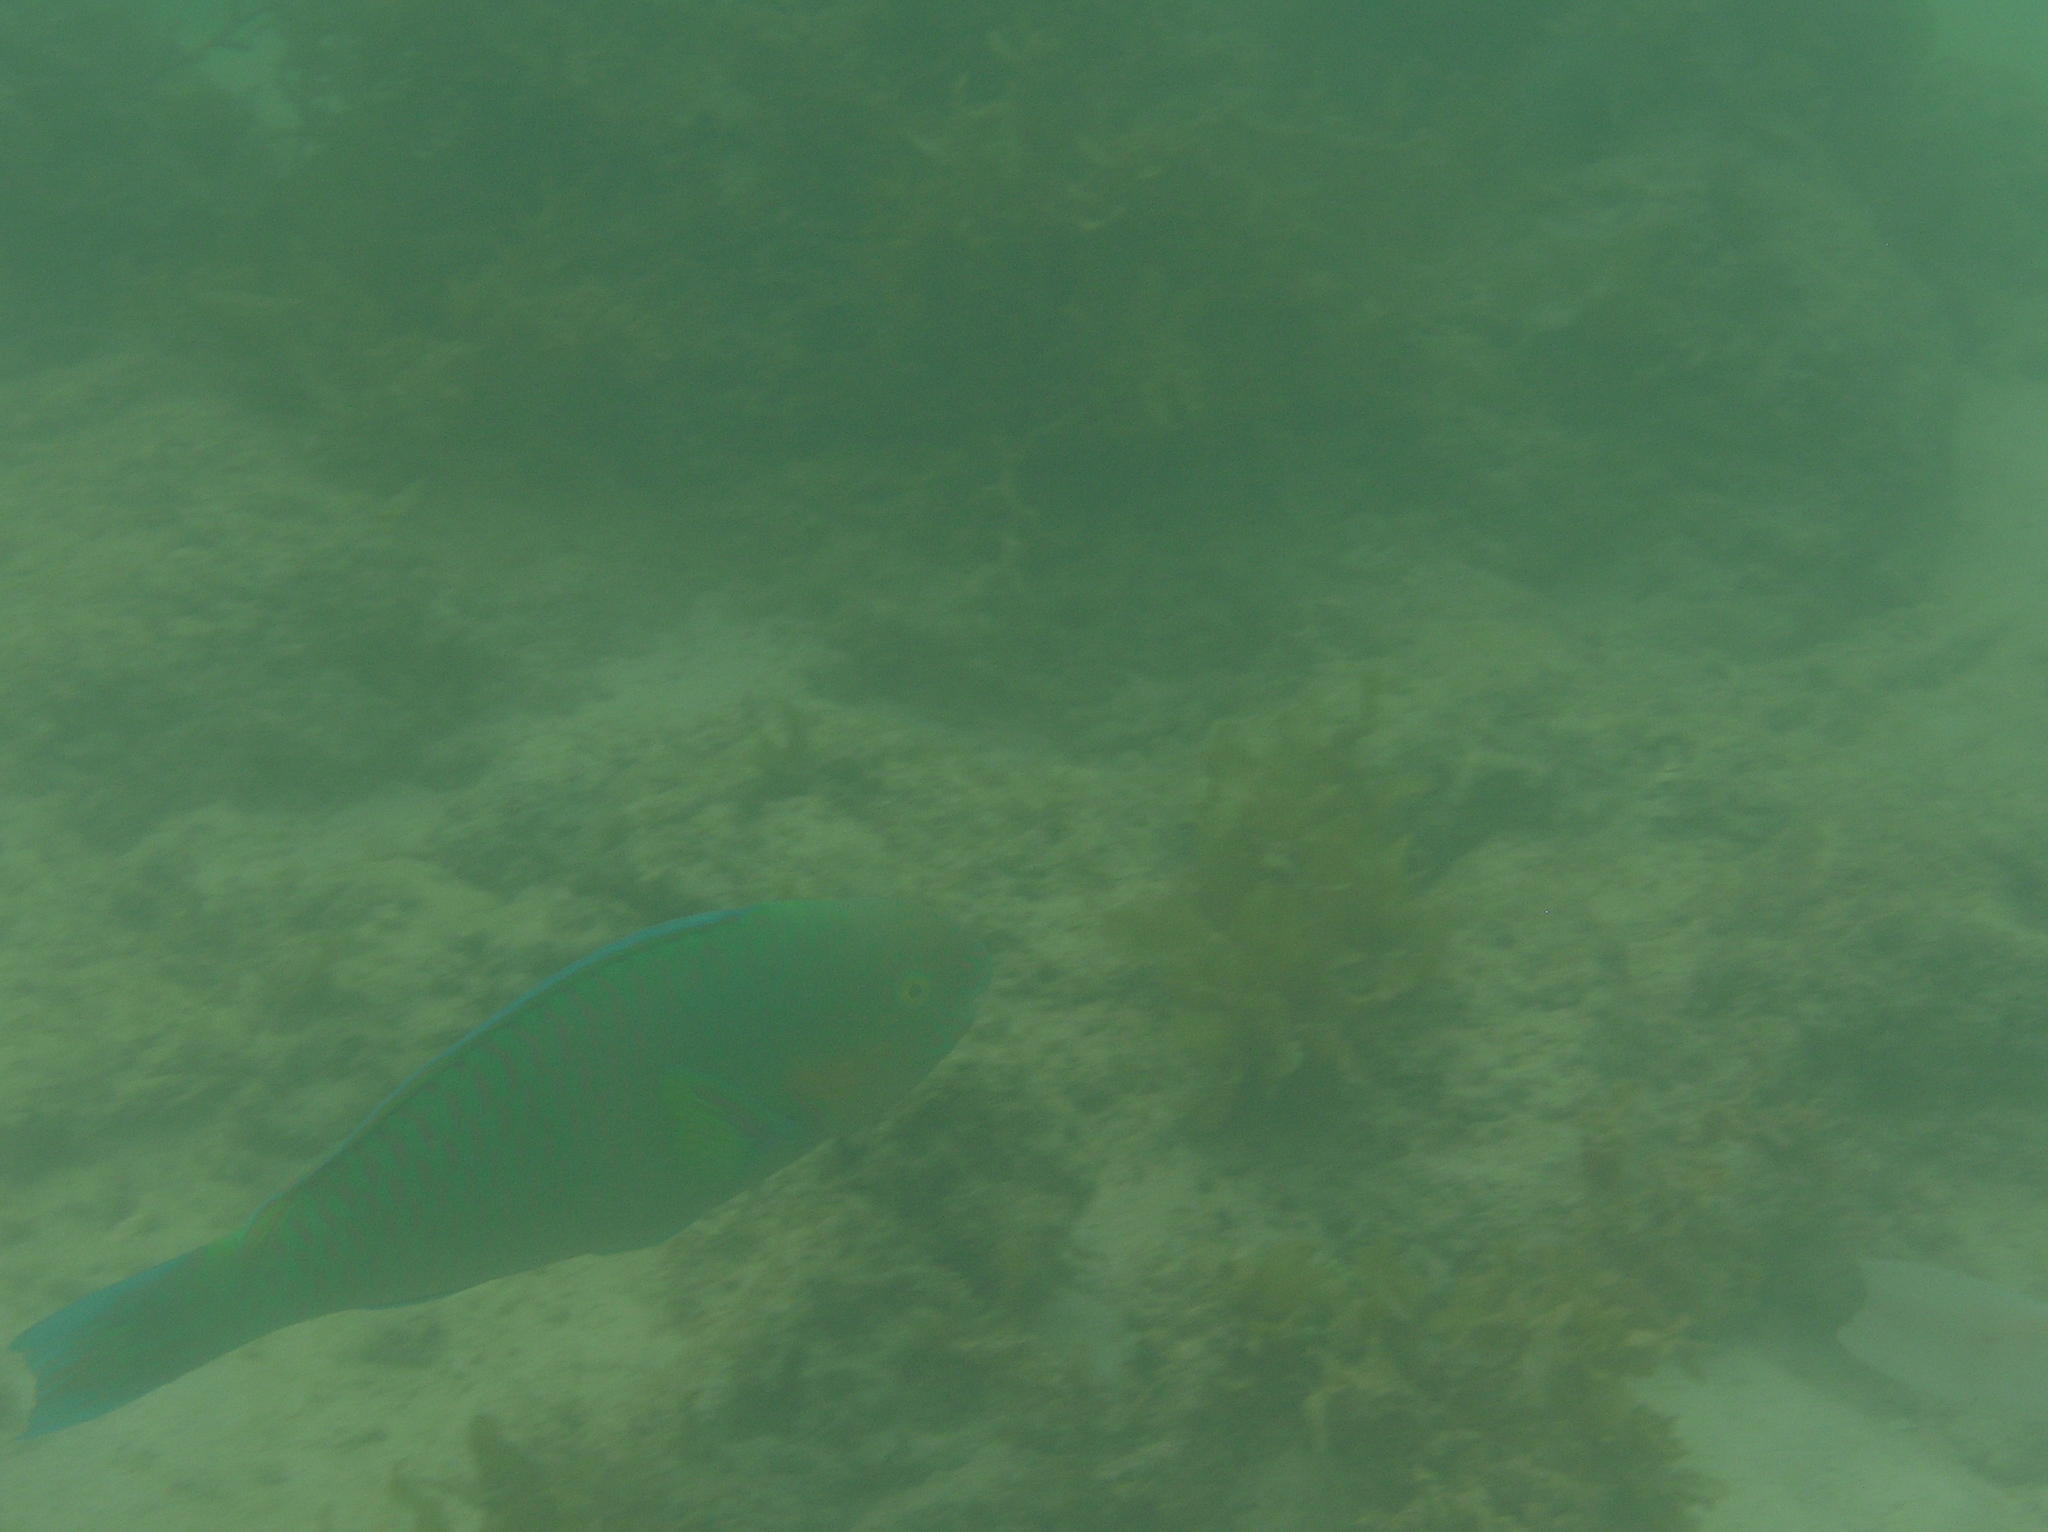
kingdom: Animalia
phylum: Chordata
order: Perciformes
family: Scaridae
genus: Scarus
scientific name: Scarus rivulatus
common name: Surf parrotfish
